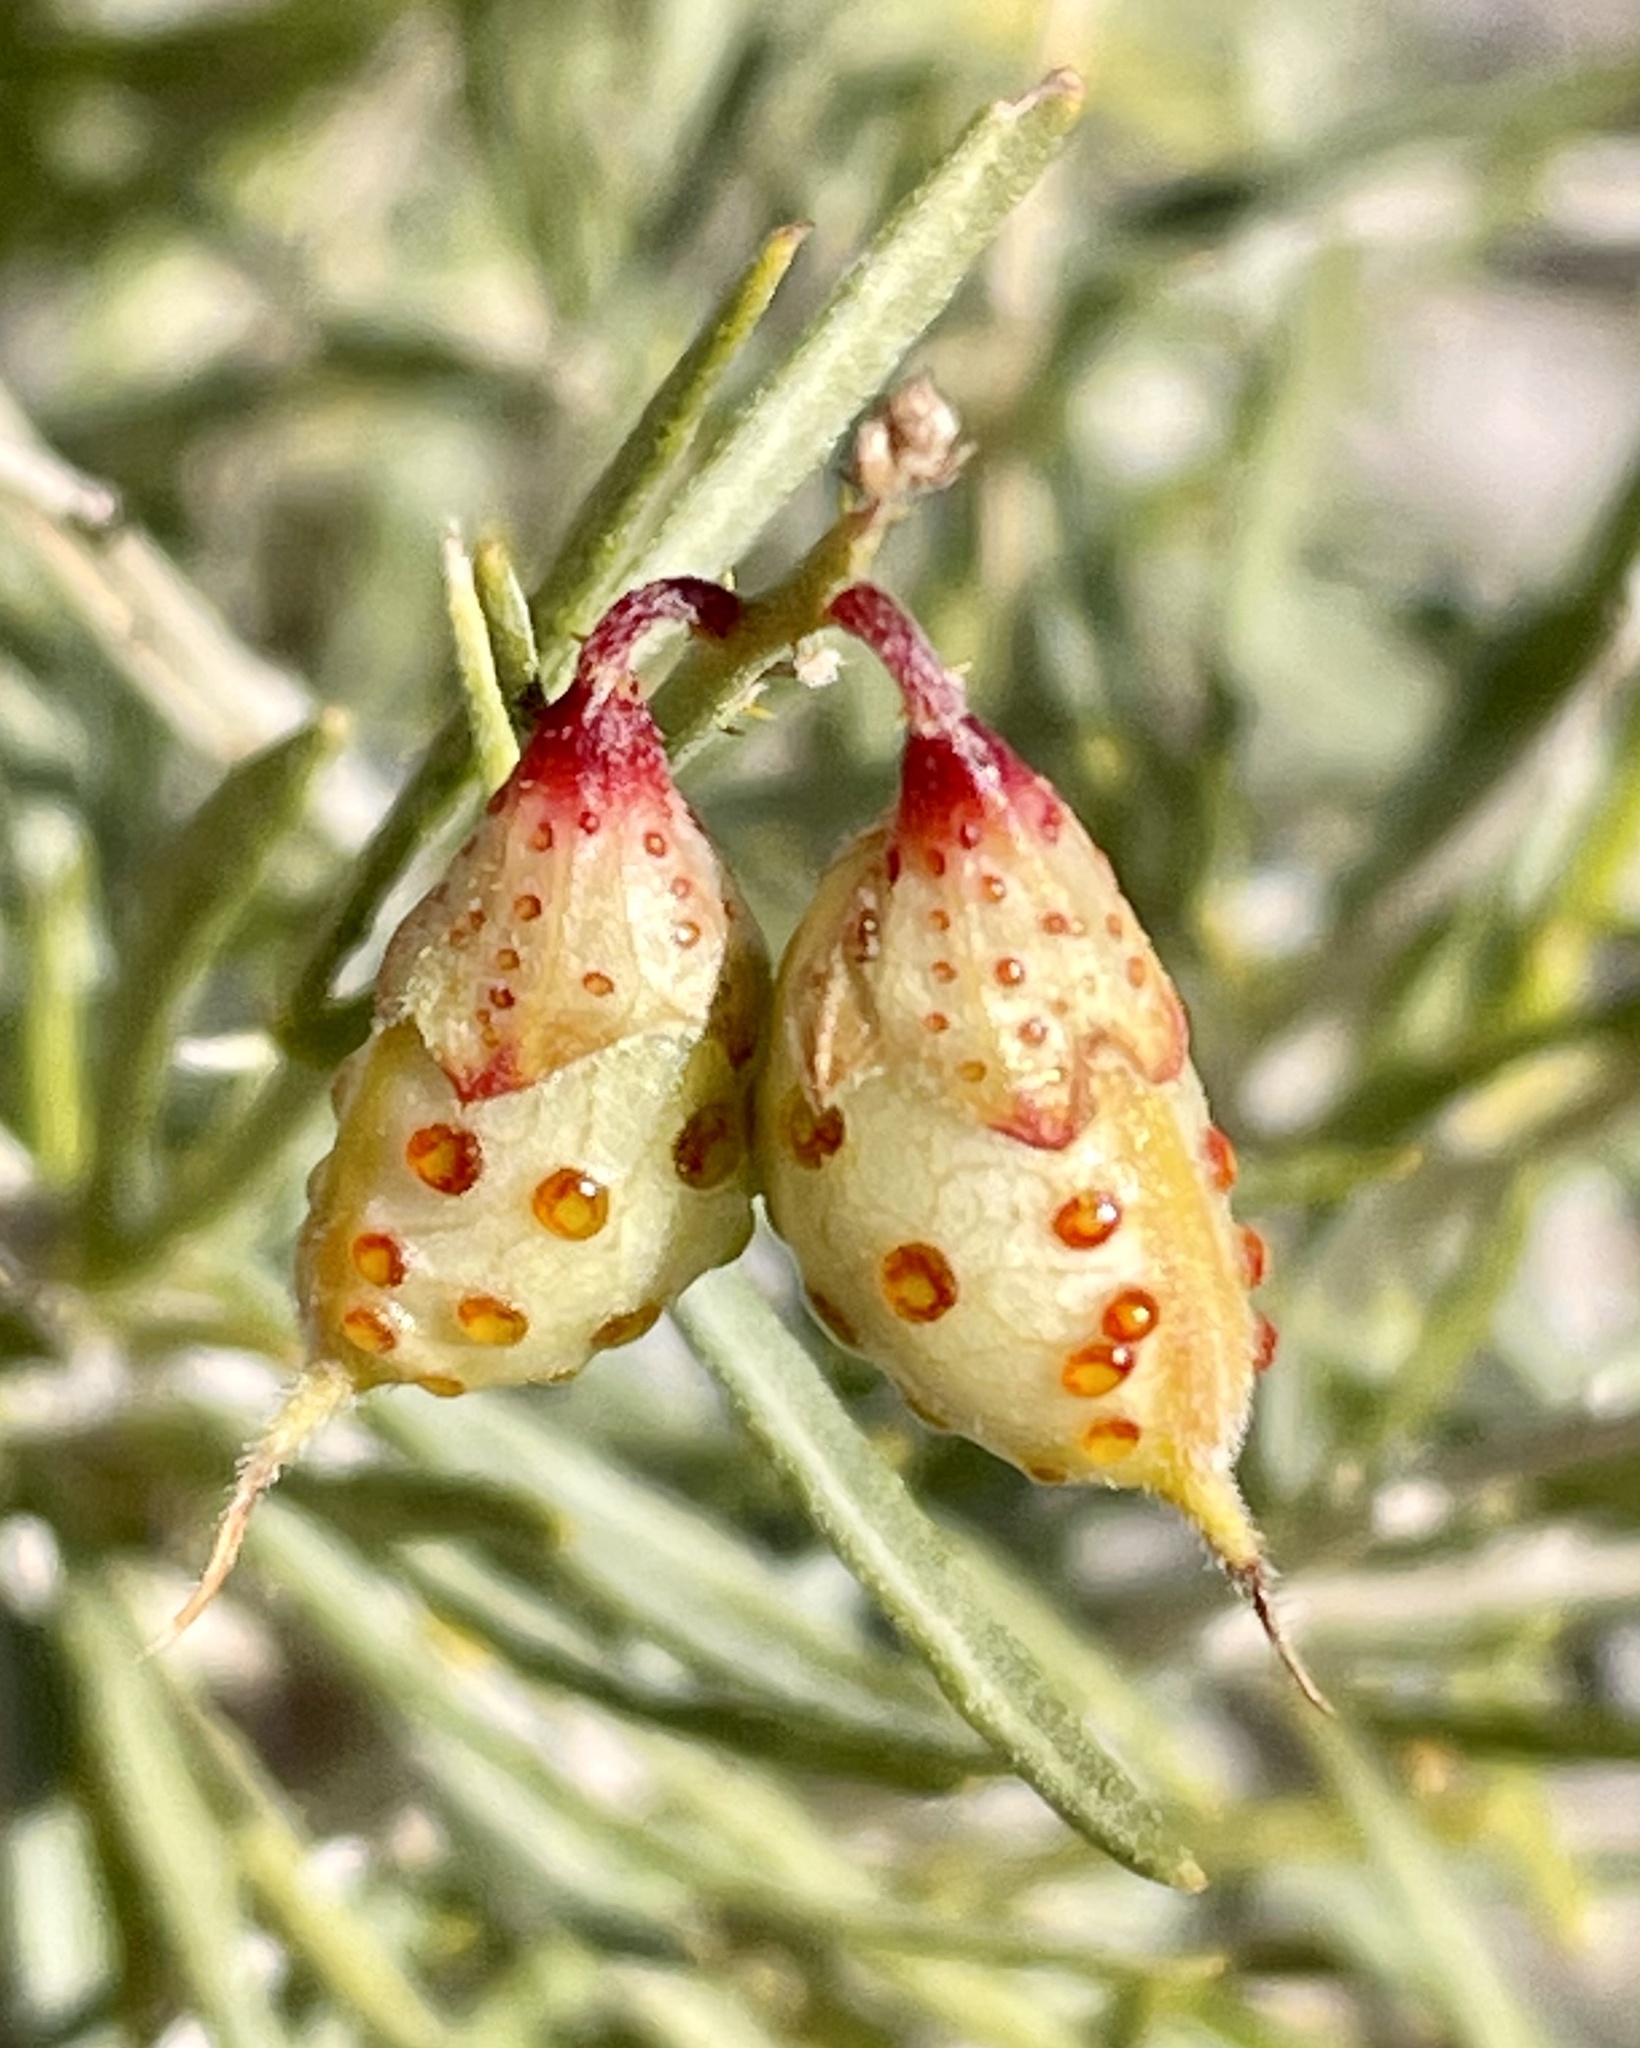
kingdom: Plantae
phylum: Tracheophyta
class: Magnoliopsida
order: Fabales
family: Fabaceae
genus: Psorothamnus
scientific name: Psorothamnus schottii
